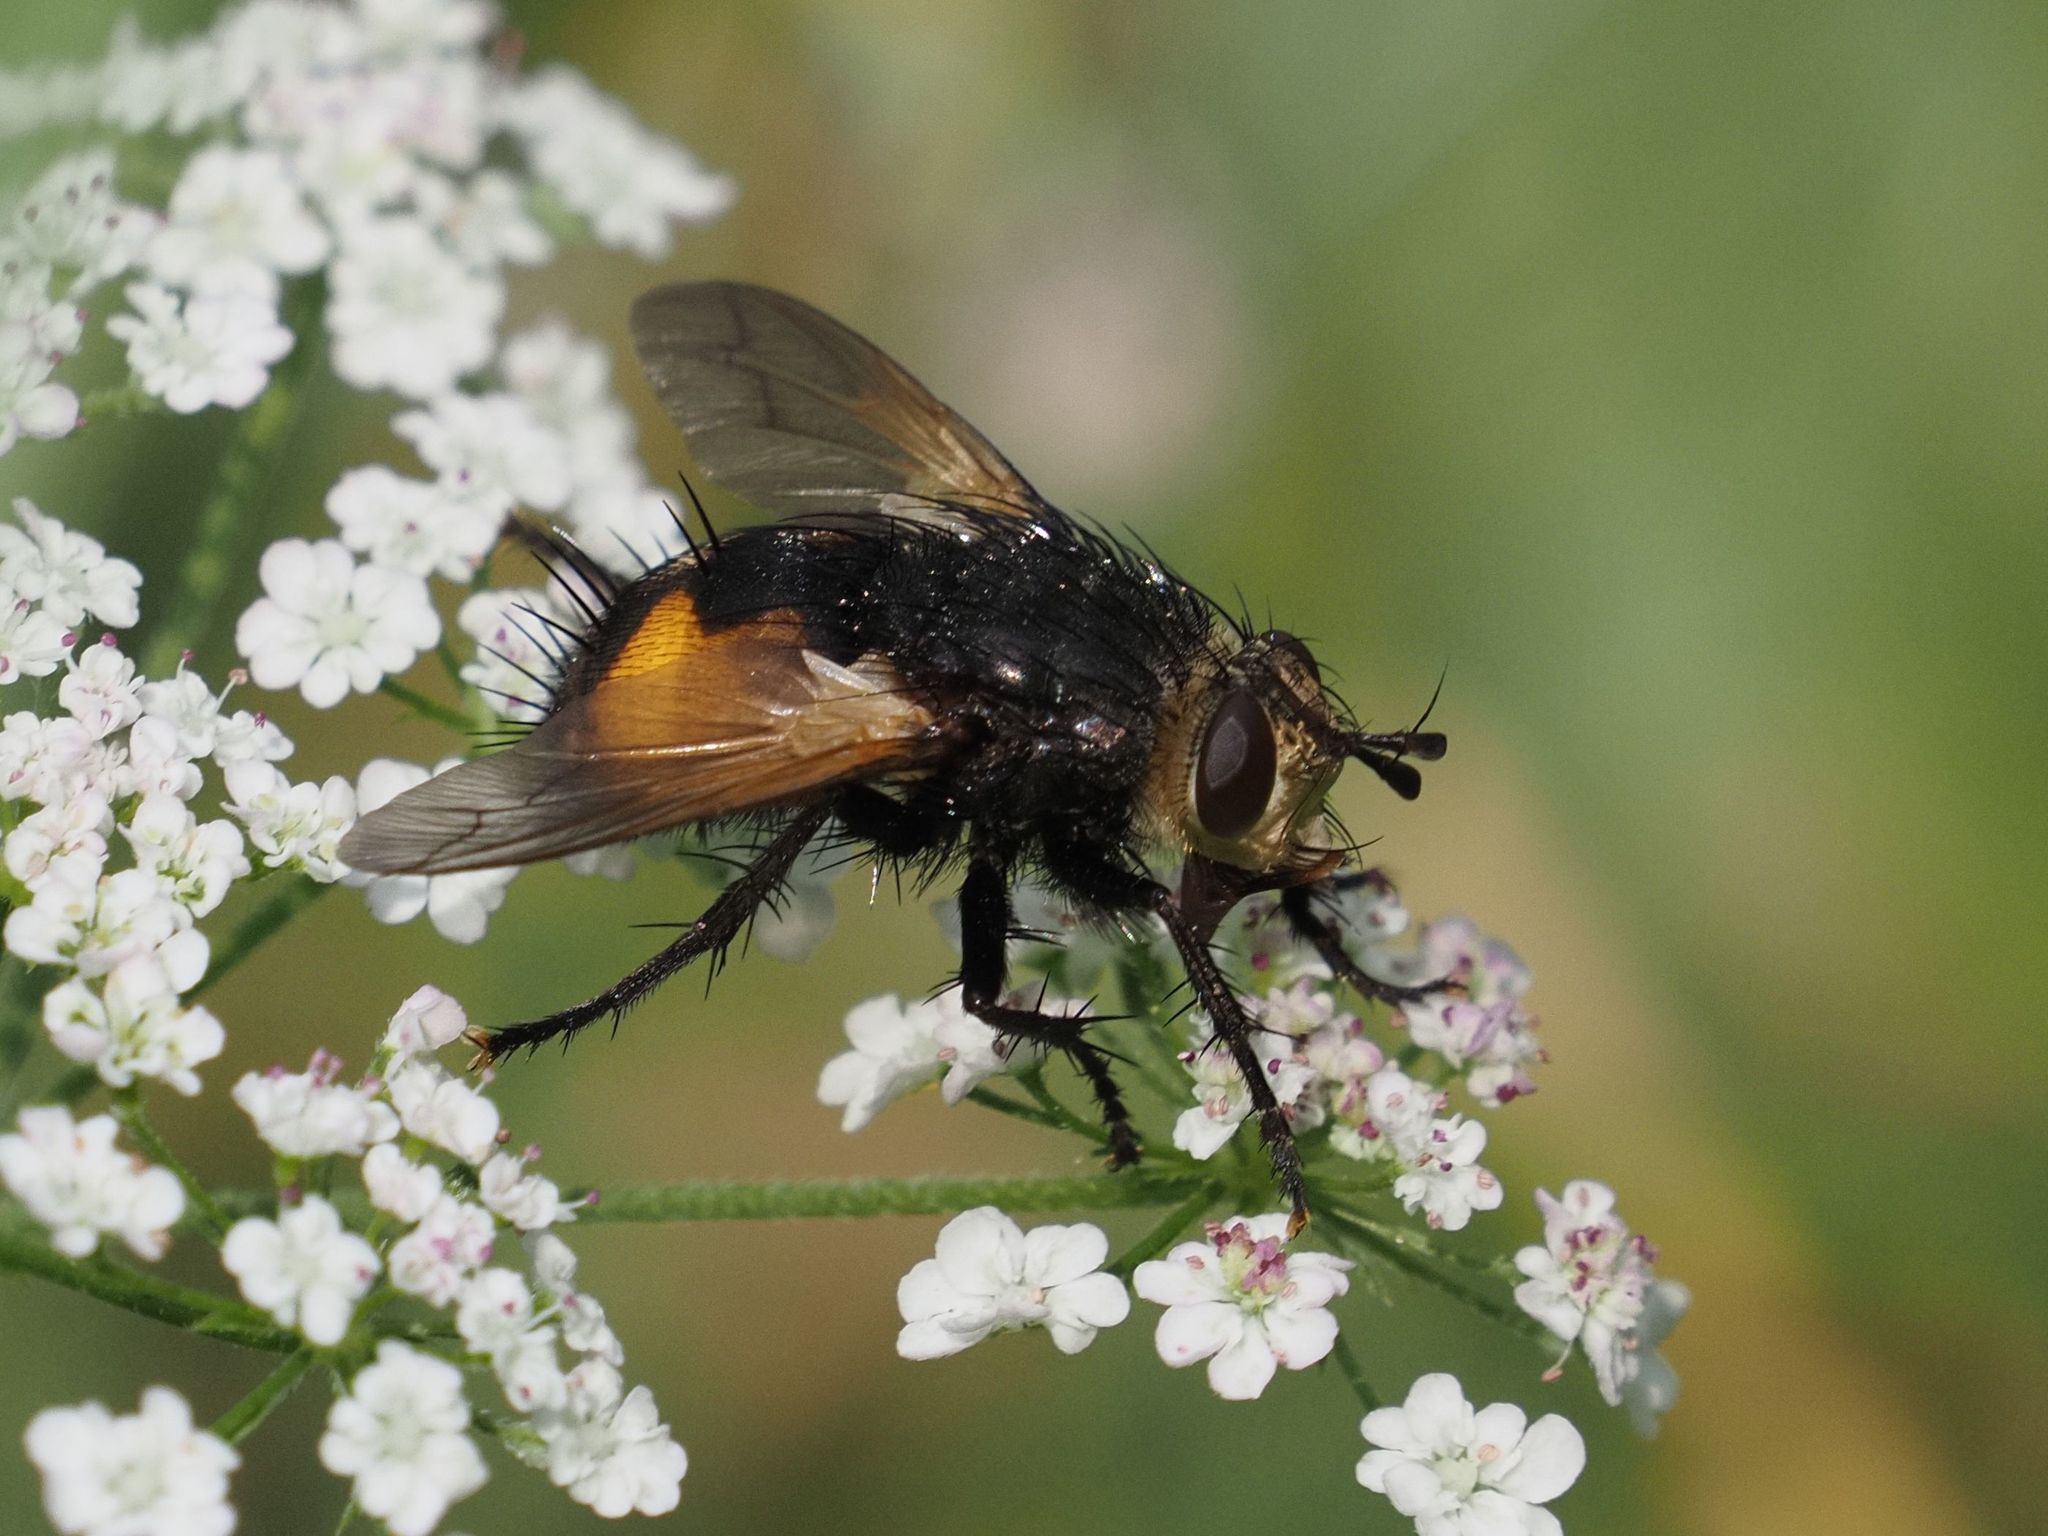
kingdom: Animalia
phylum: Arthropoda
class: Insecta
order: Diptera
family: Tachinidae
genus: Nowickia
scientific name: Nowickia ferox
